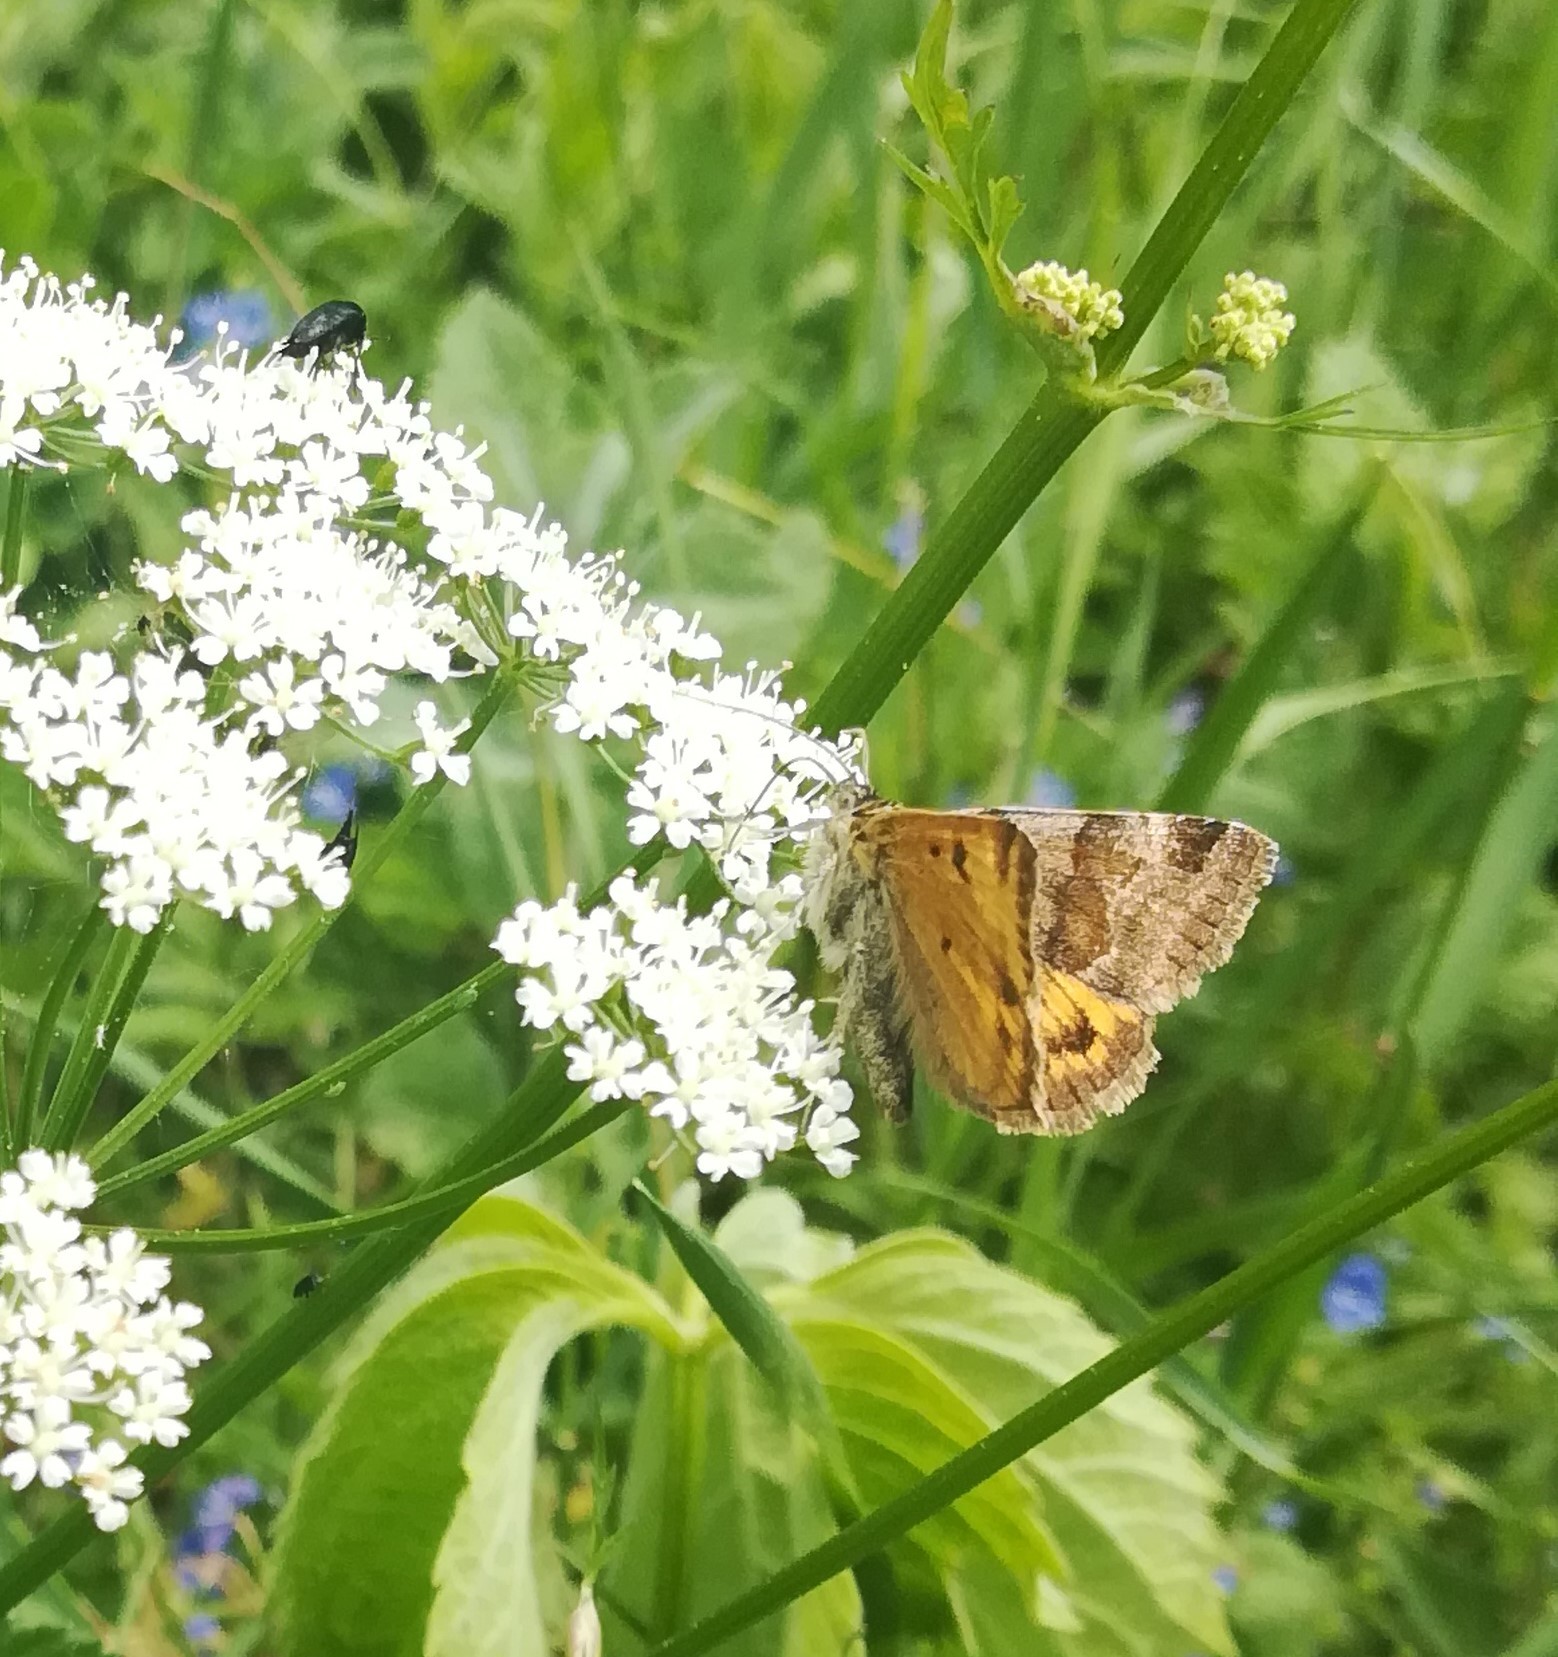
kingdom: Animalia
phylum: Arthropoda
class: Insecta
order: Lepidoptera
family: Erebidae
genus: Euclidia
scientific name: Euclidia glyphica
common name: Burnet companion
